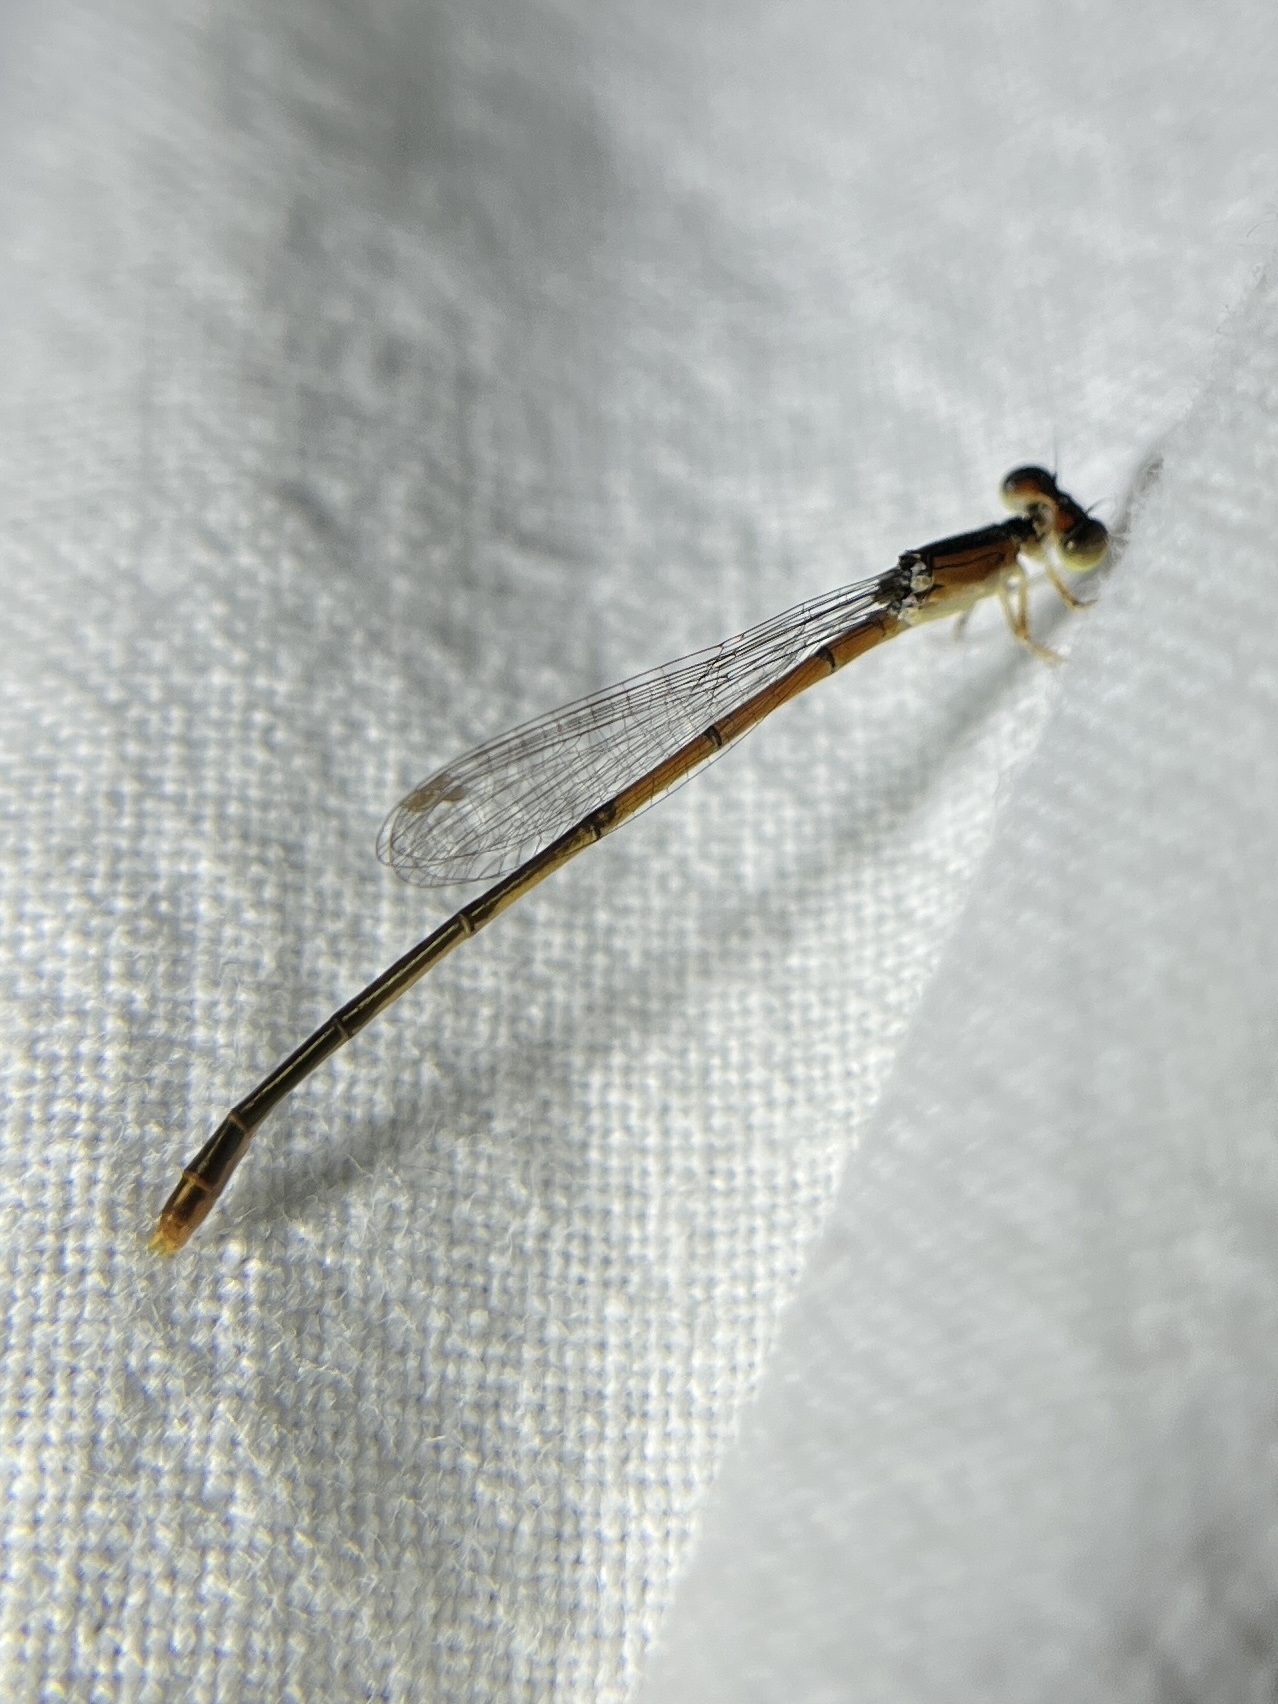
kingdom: Animalia
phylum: Arthropoda
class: Insecta
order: Odonata
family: Coenagrionidae
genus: Ischnura
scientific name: Ischnura hastata
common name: Citrine forktail
